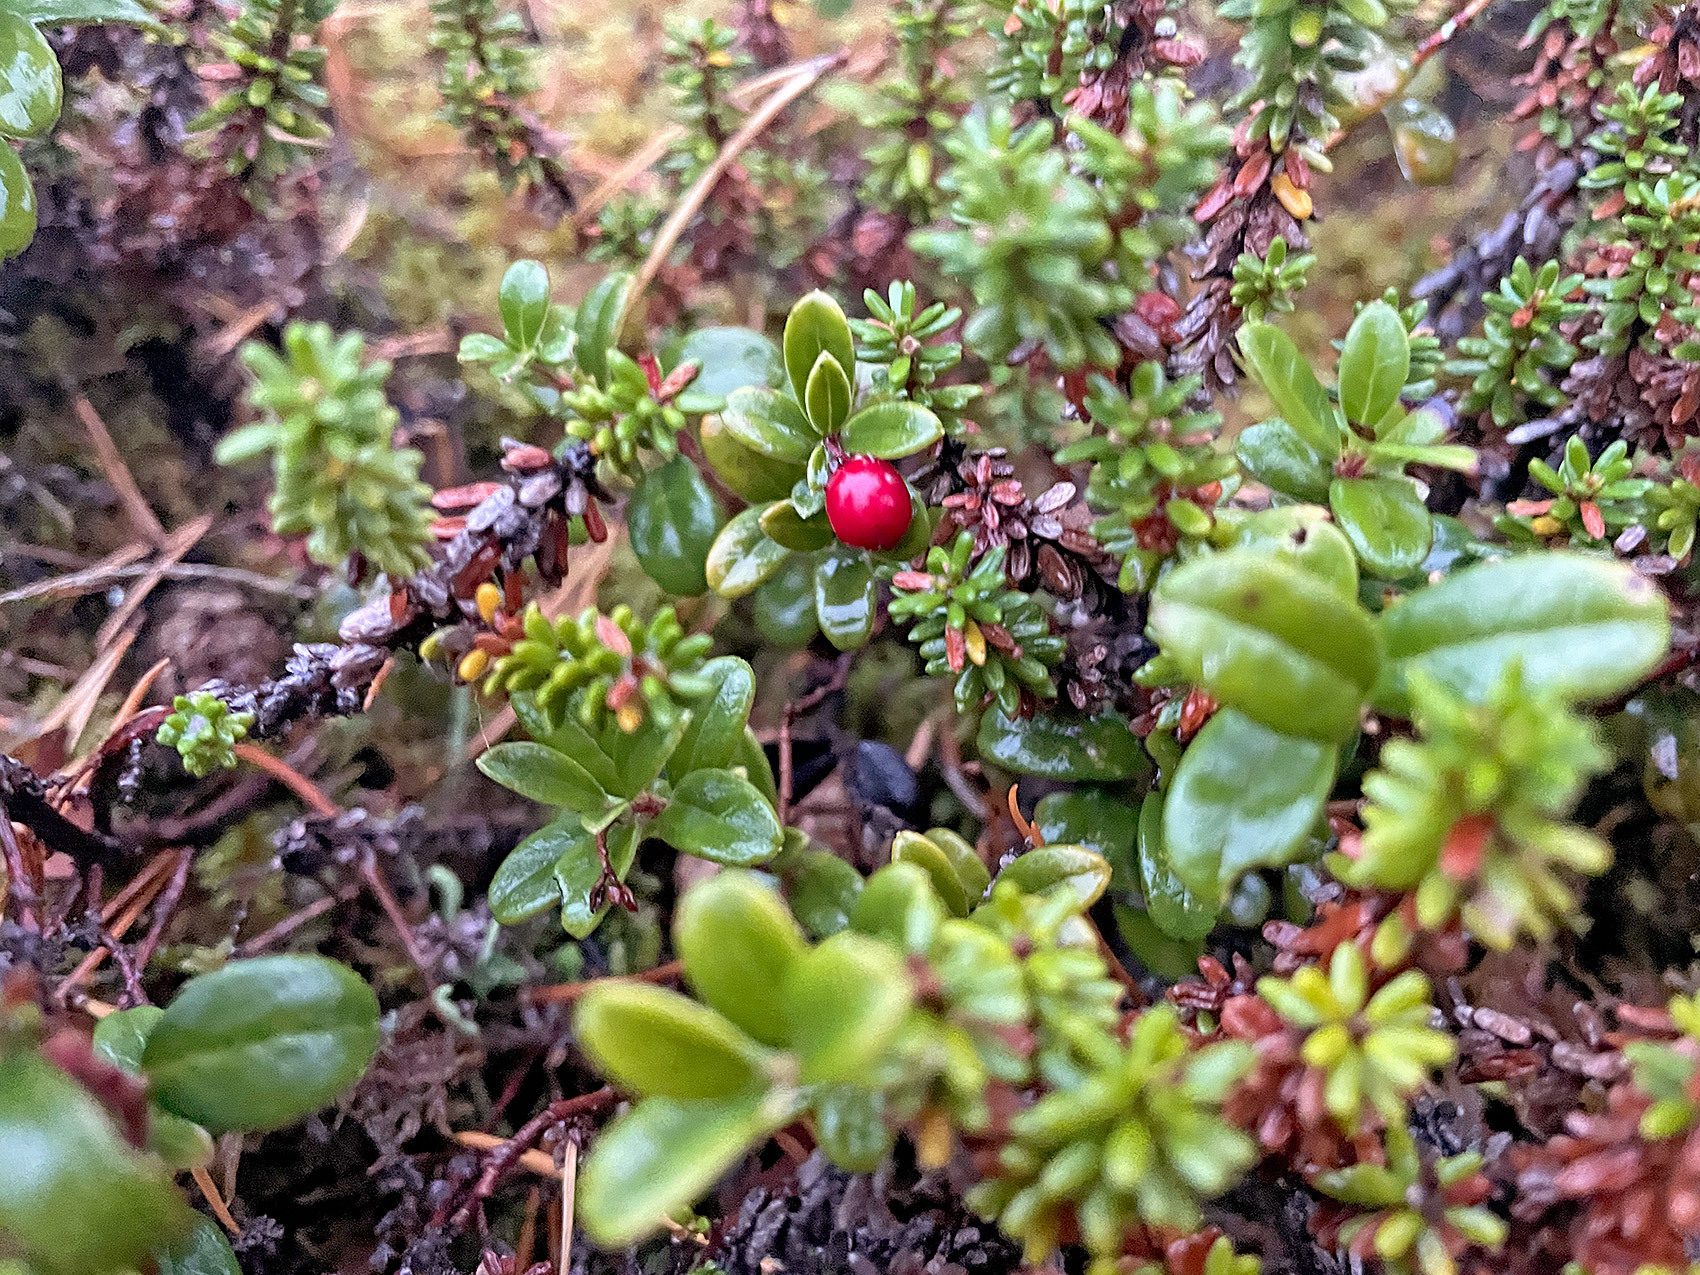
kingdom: Plantae
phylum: Tracheophyta
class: Magnoliopsida
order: Ericales
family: Ericaceae
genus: Vaccinium
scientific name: Vaccinium vitis-idaea
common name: Cowberry
